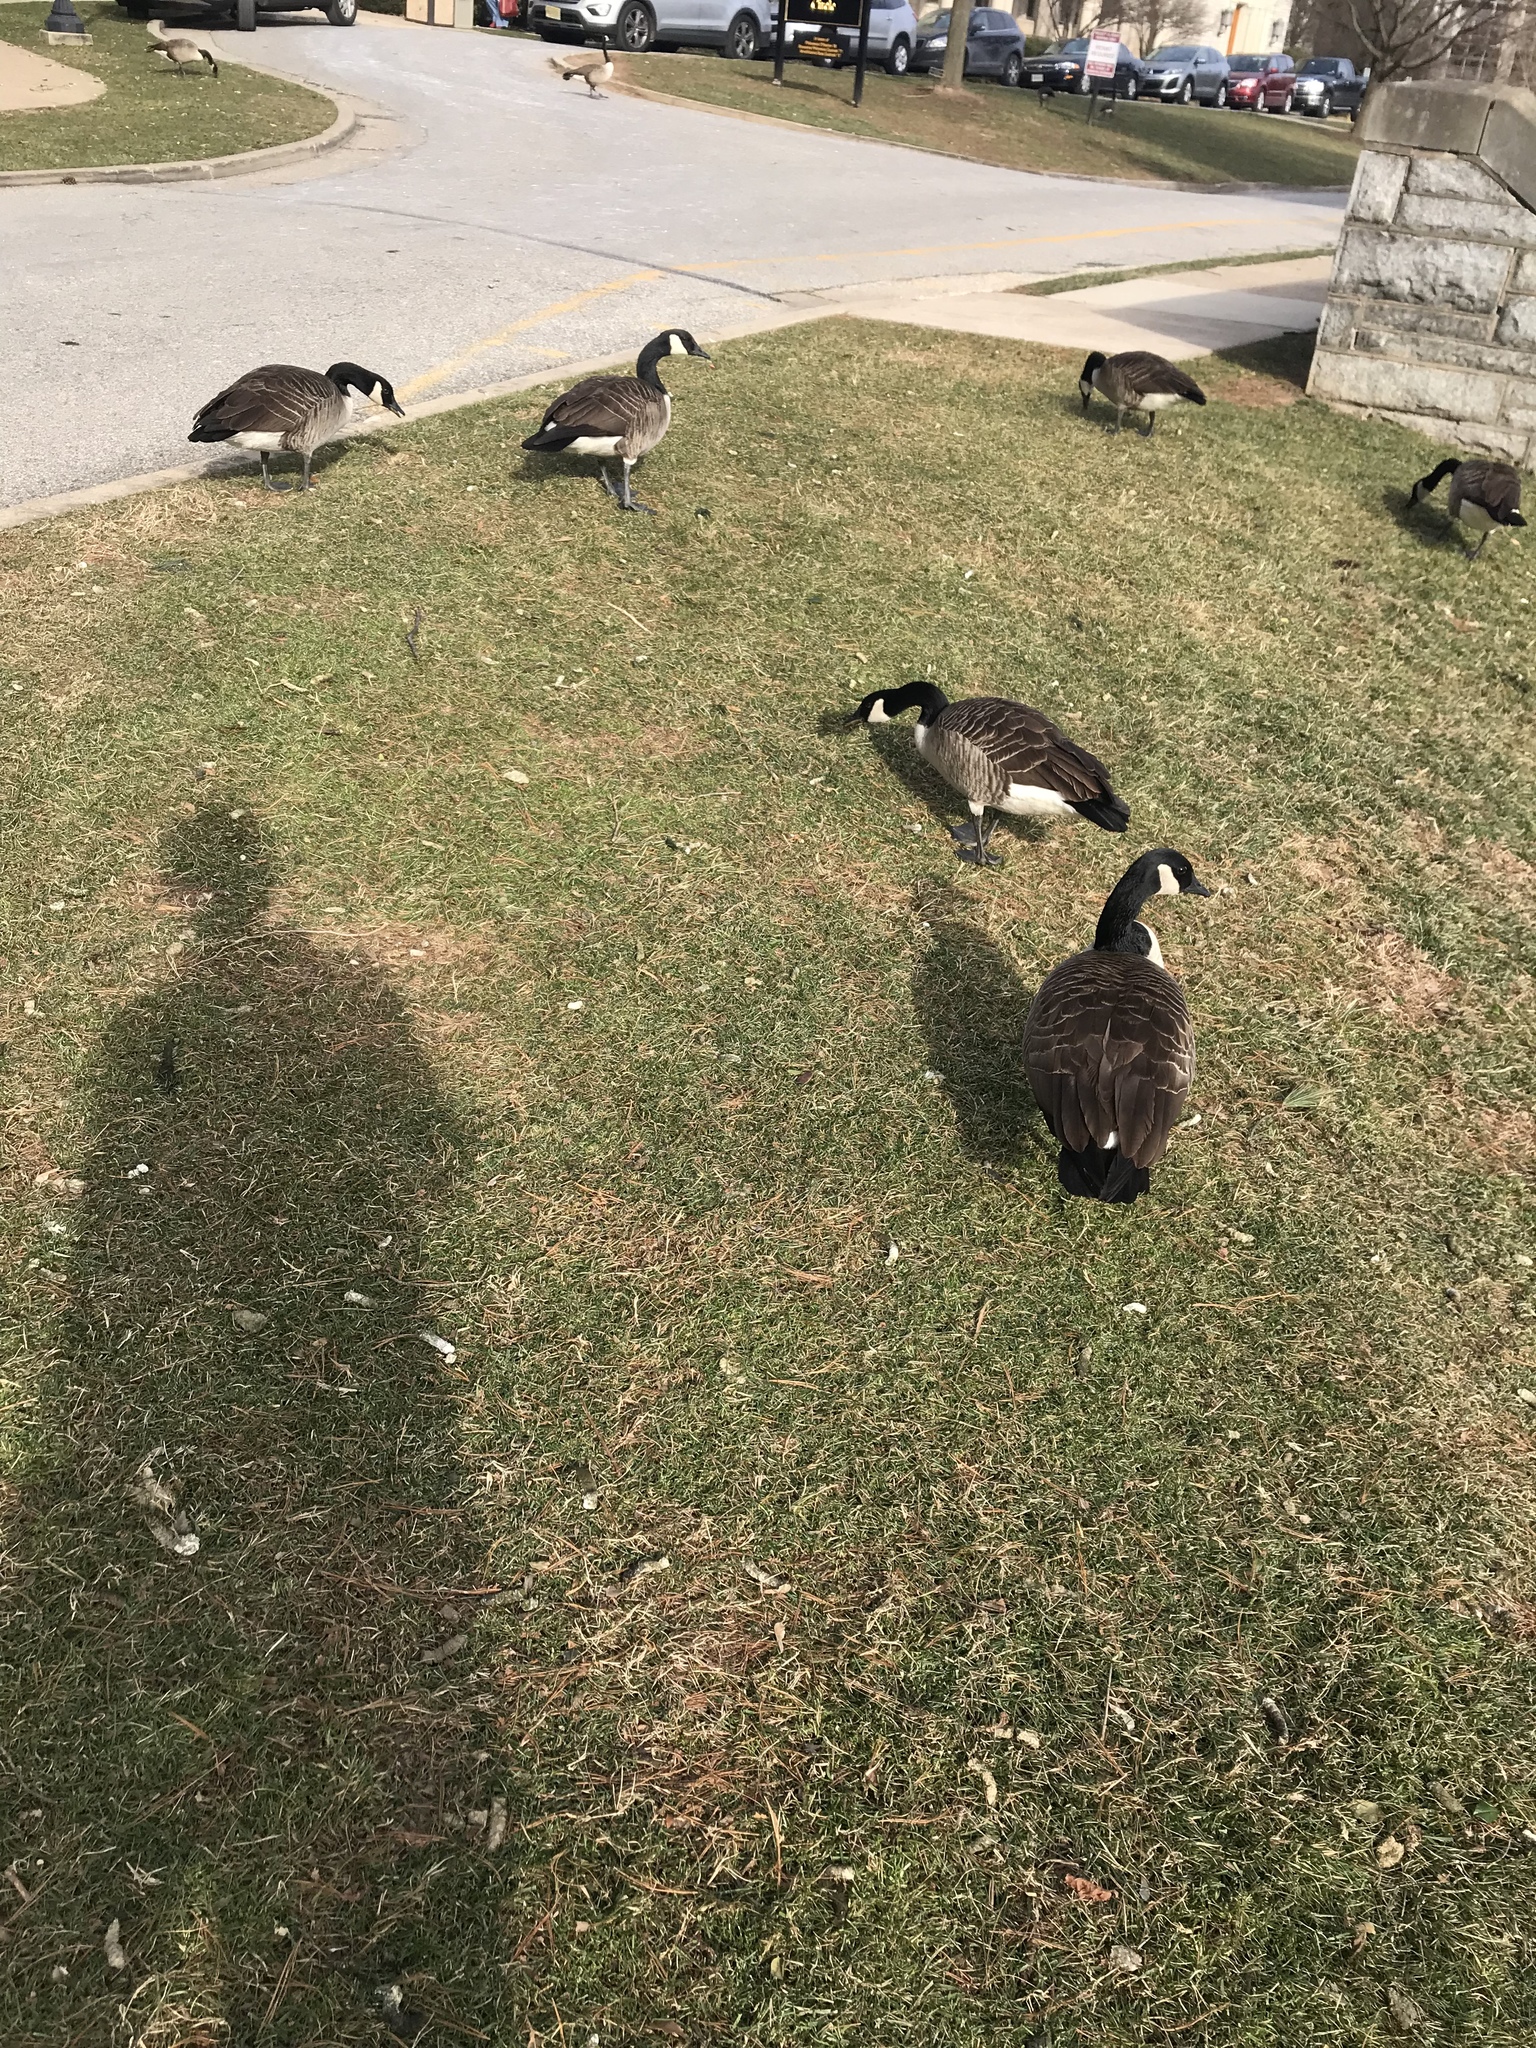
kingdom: Animalia
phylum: Chordata
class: Aves
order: Anseriformes
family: Anatidae
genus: Branta
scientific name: Branta canadensis
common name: Canada goose
